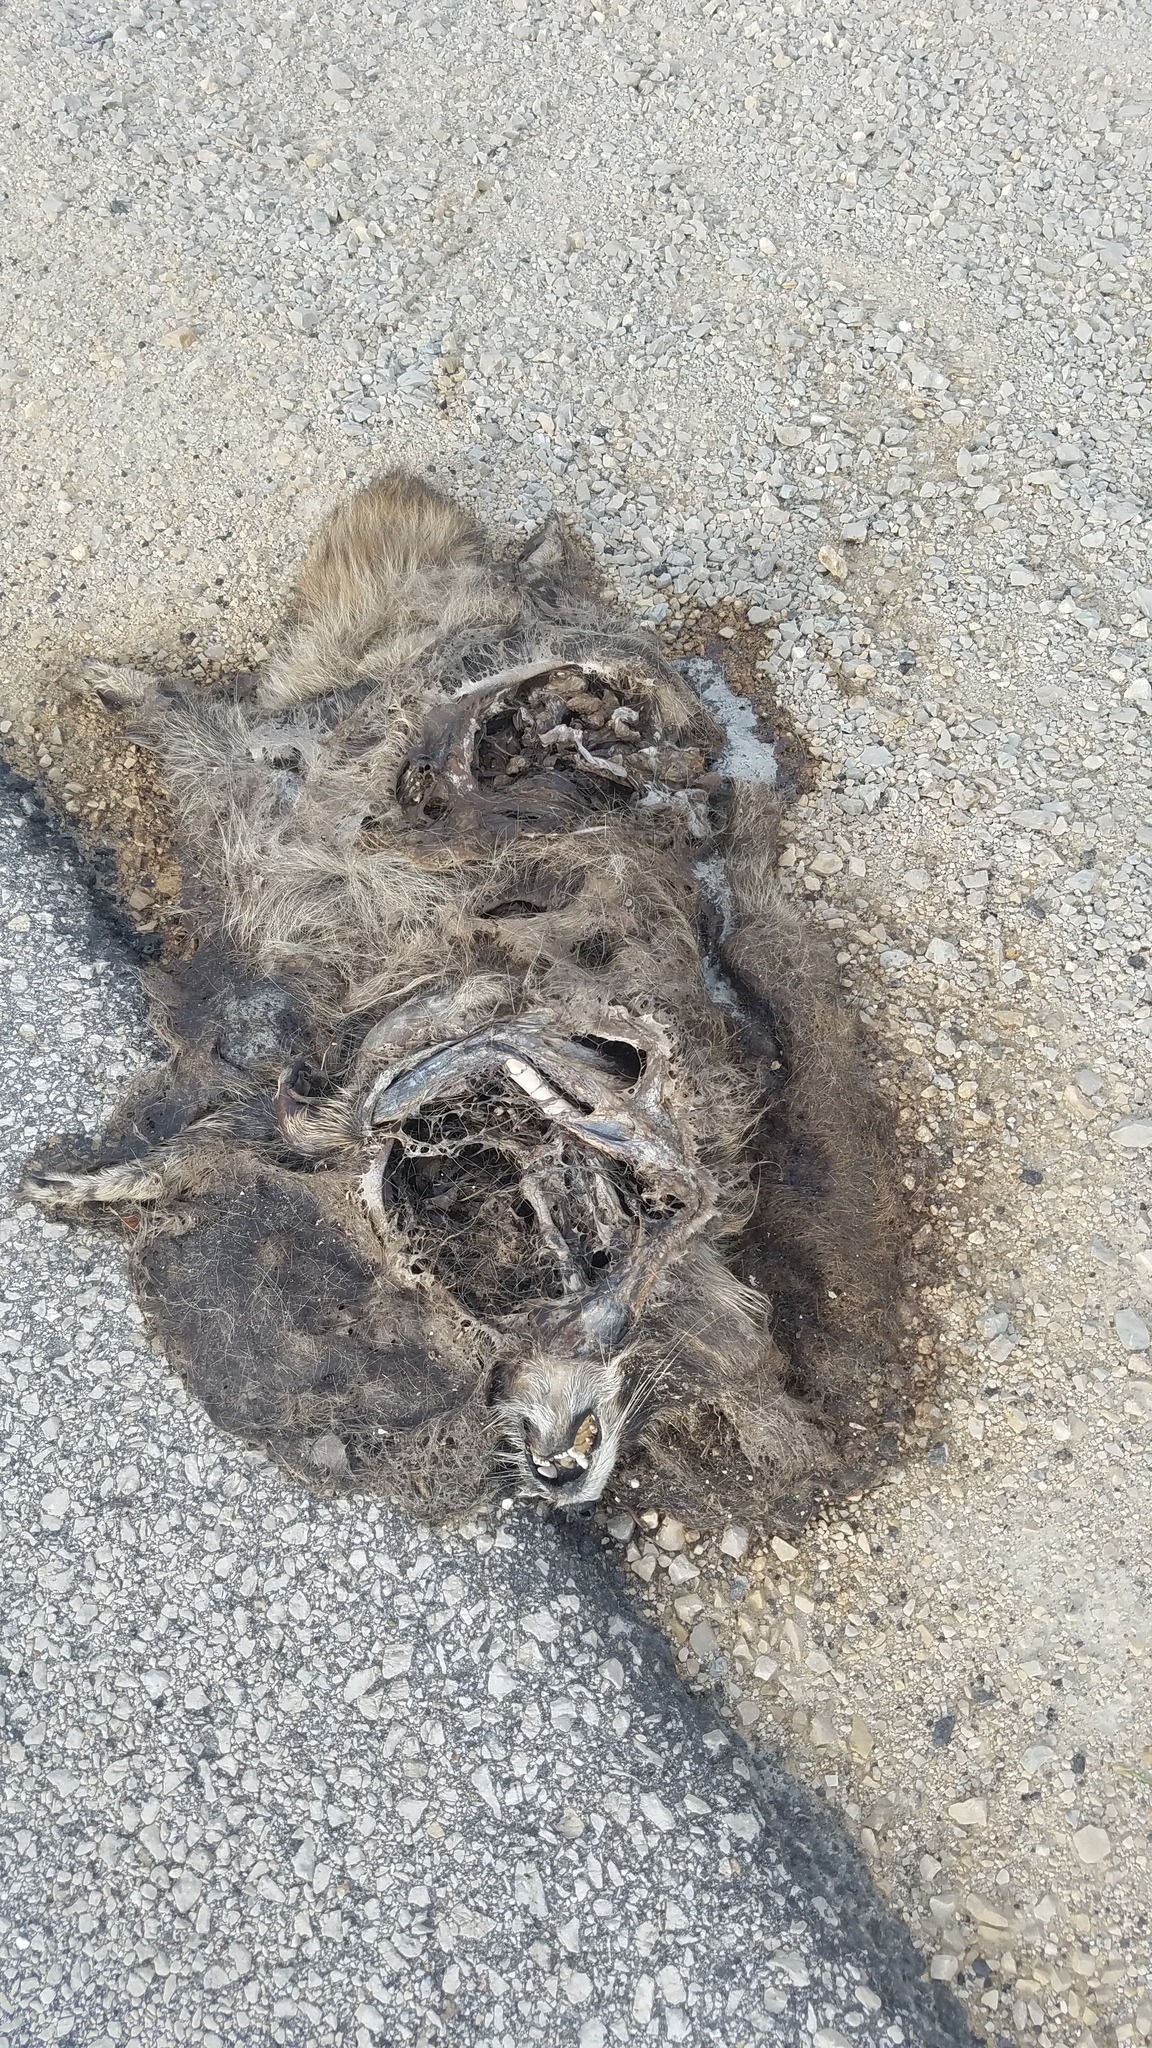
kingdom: Animalia
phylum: Chordata
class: Mammalia
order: Carnivora
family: Procyonidae
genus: Procyon
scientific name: Procyon lotor
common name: Raccoon
